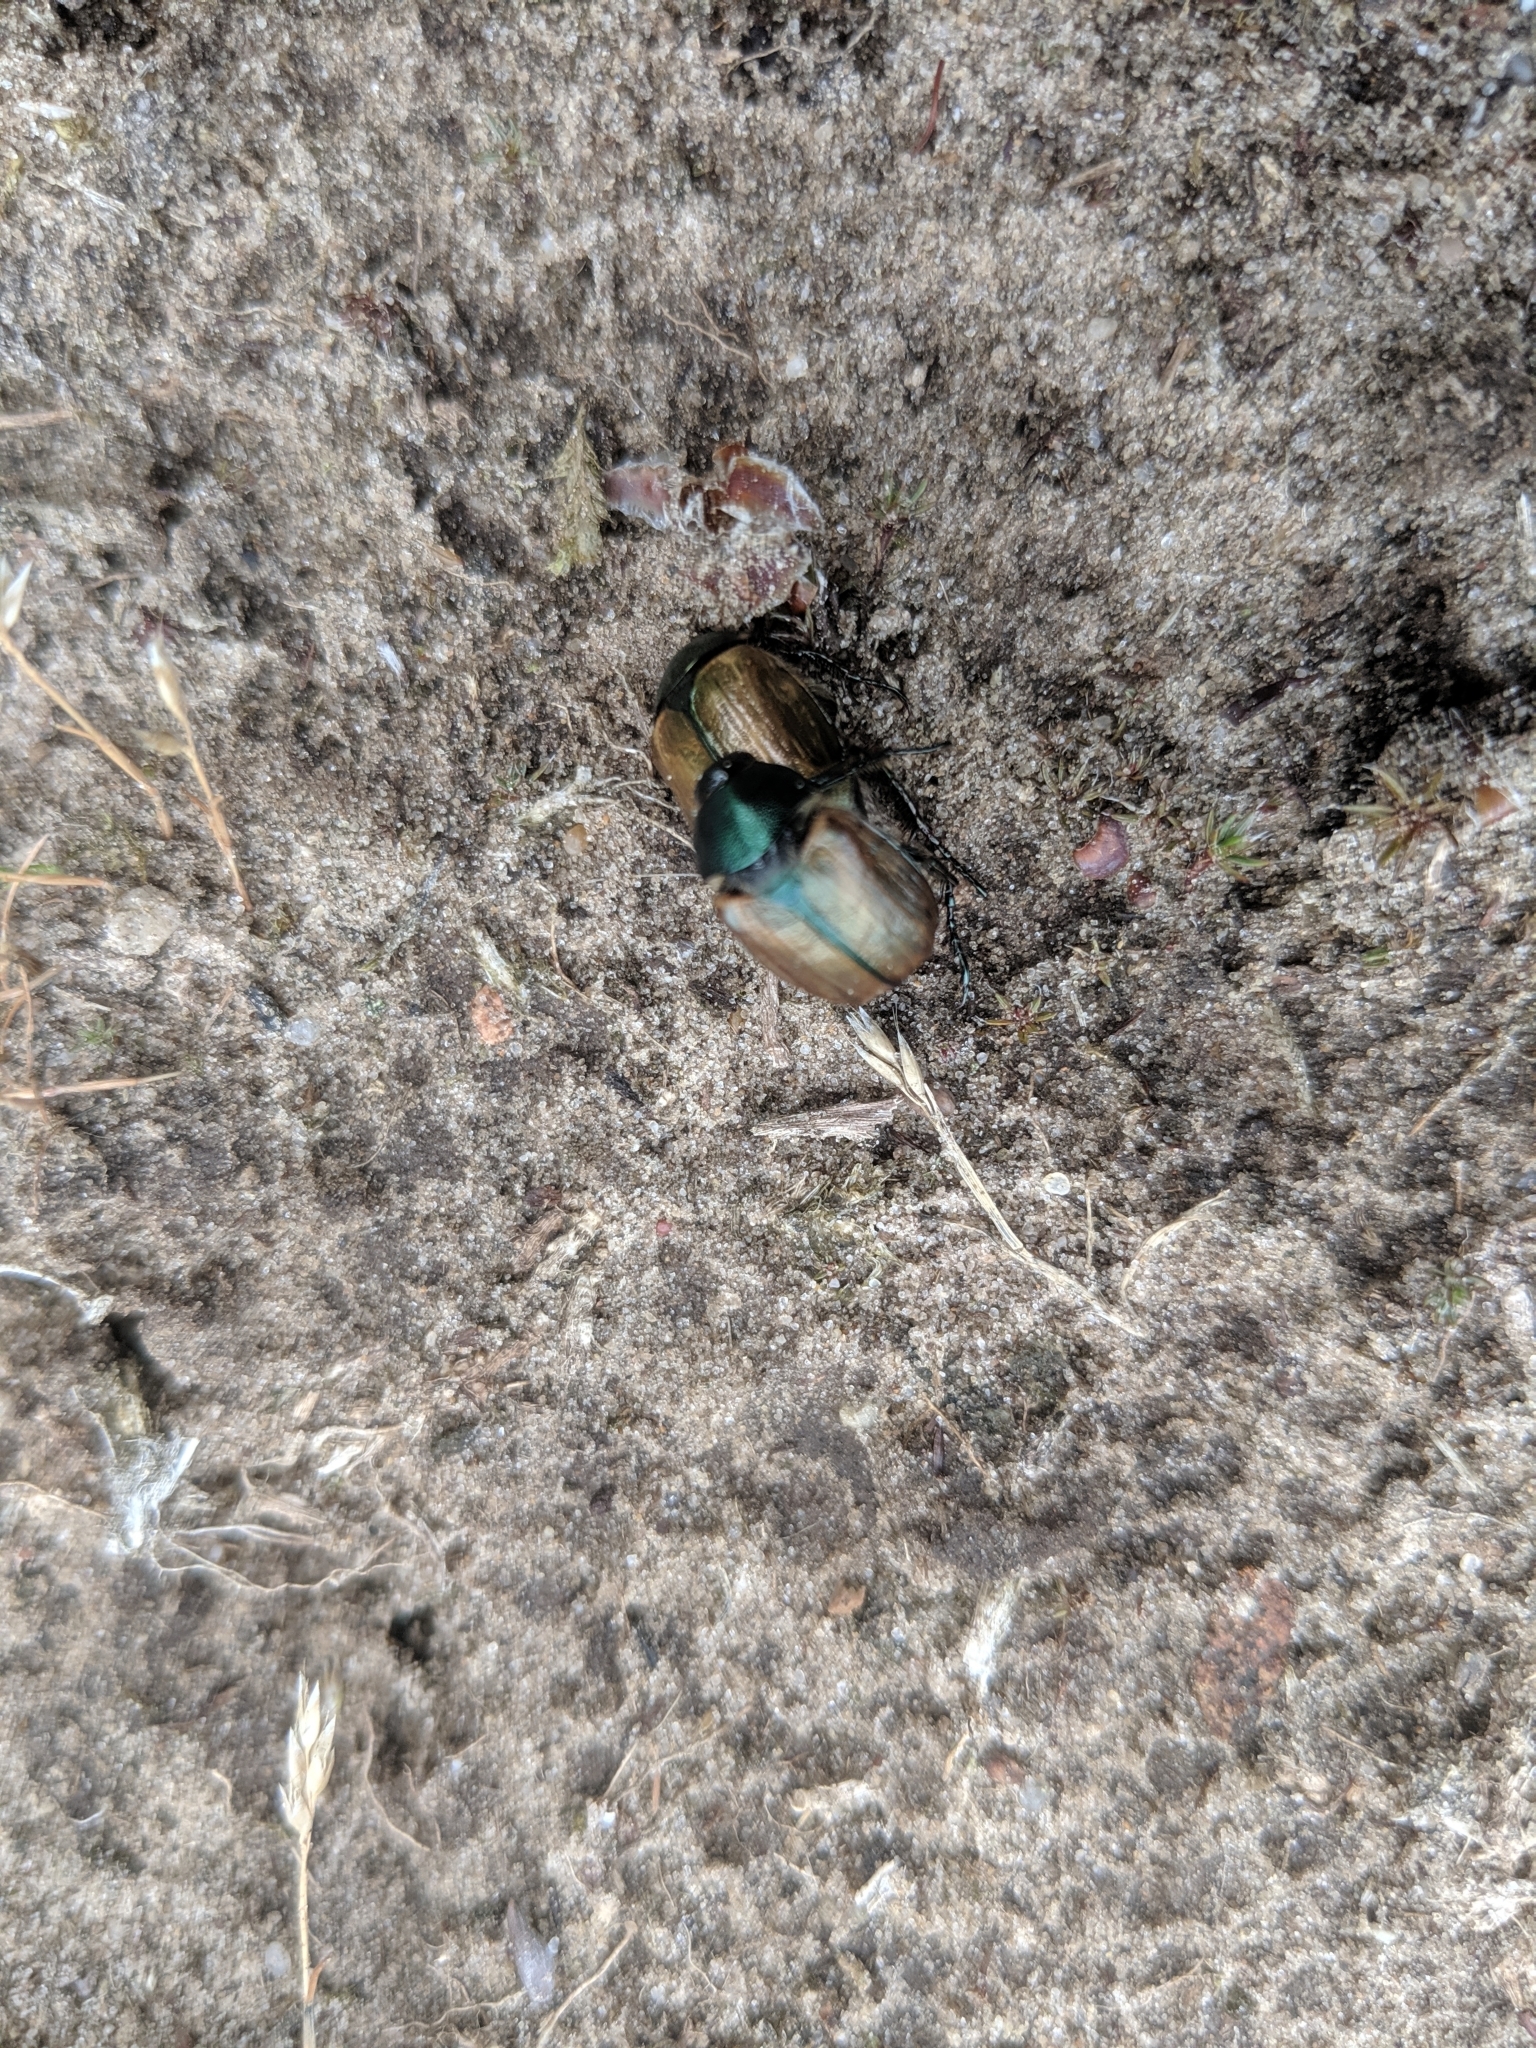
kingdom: Animalia
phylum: Arthropoda
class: Insecta
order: Coleoptera
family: Scarabaeidae
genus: Anomala
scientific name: Anomala dubia
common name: Dune chafer
